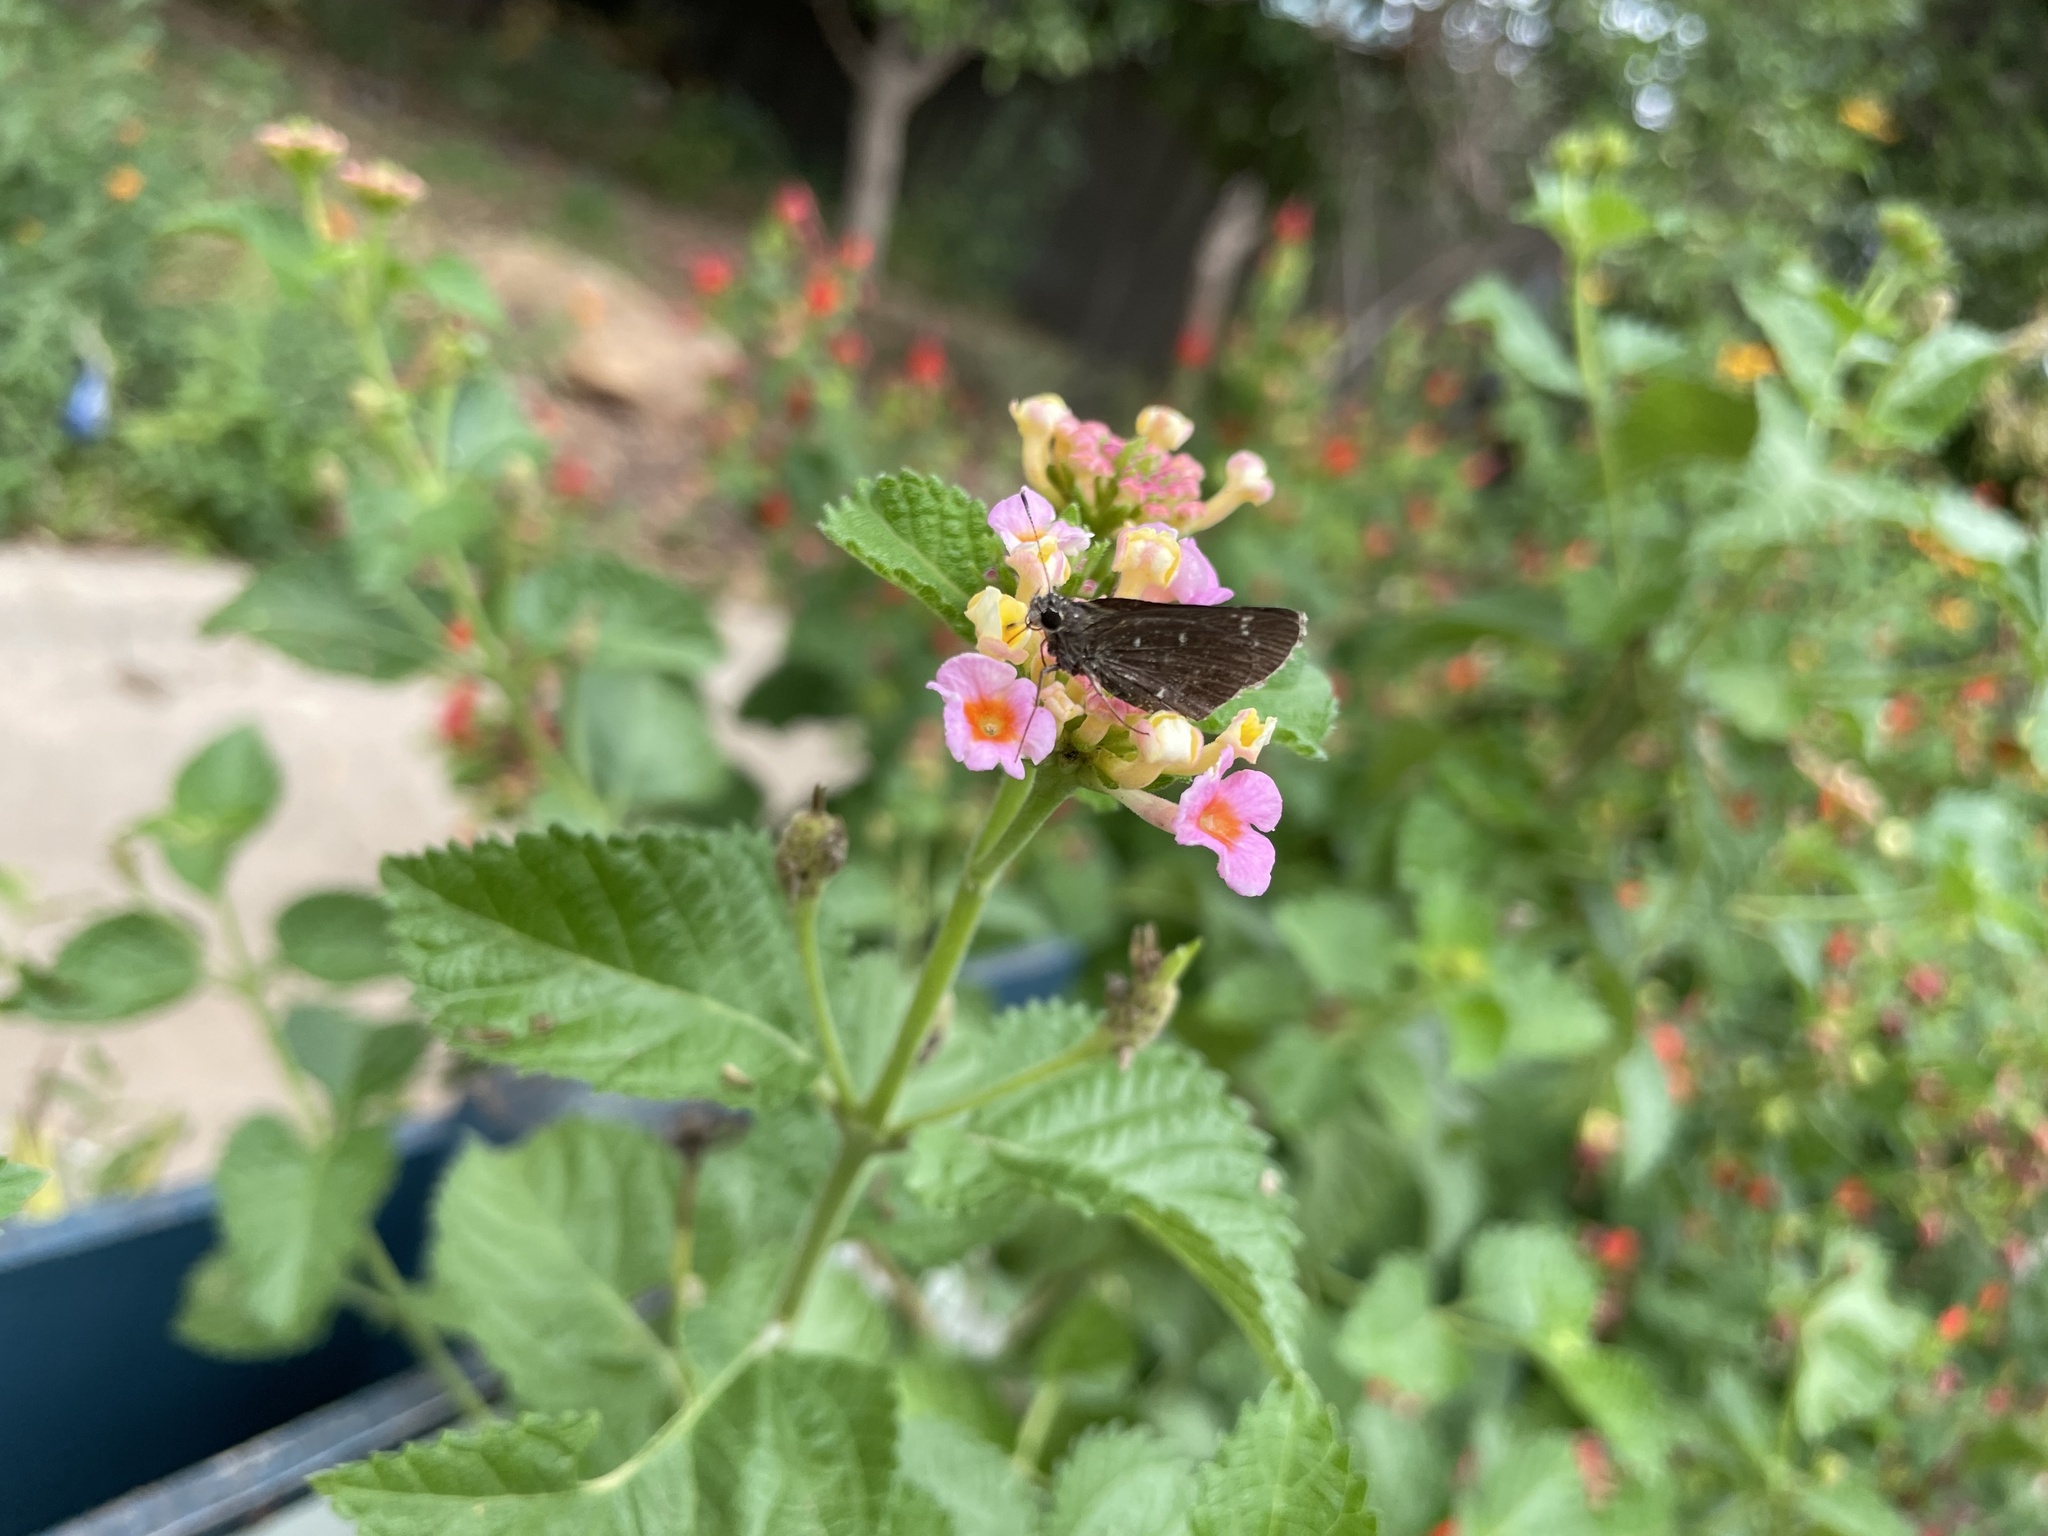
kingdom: Animalia
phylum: Arthropoda
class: Insecta
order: Lepidoptera
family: Hesperiidae
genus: Mastor
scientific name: Mastor celia
